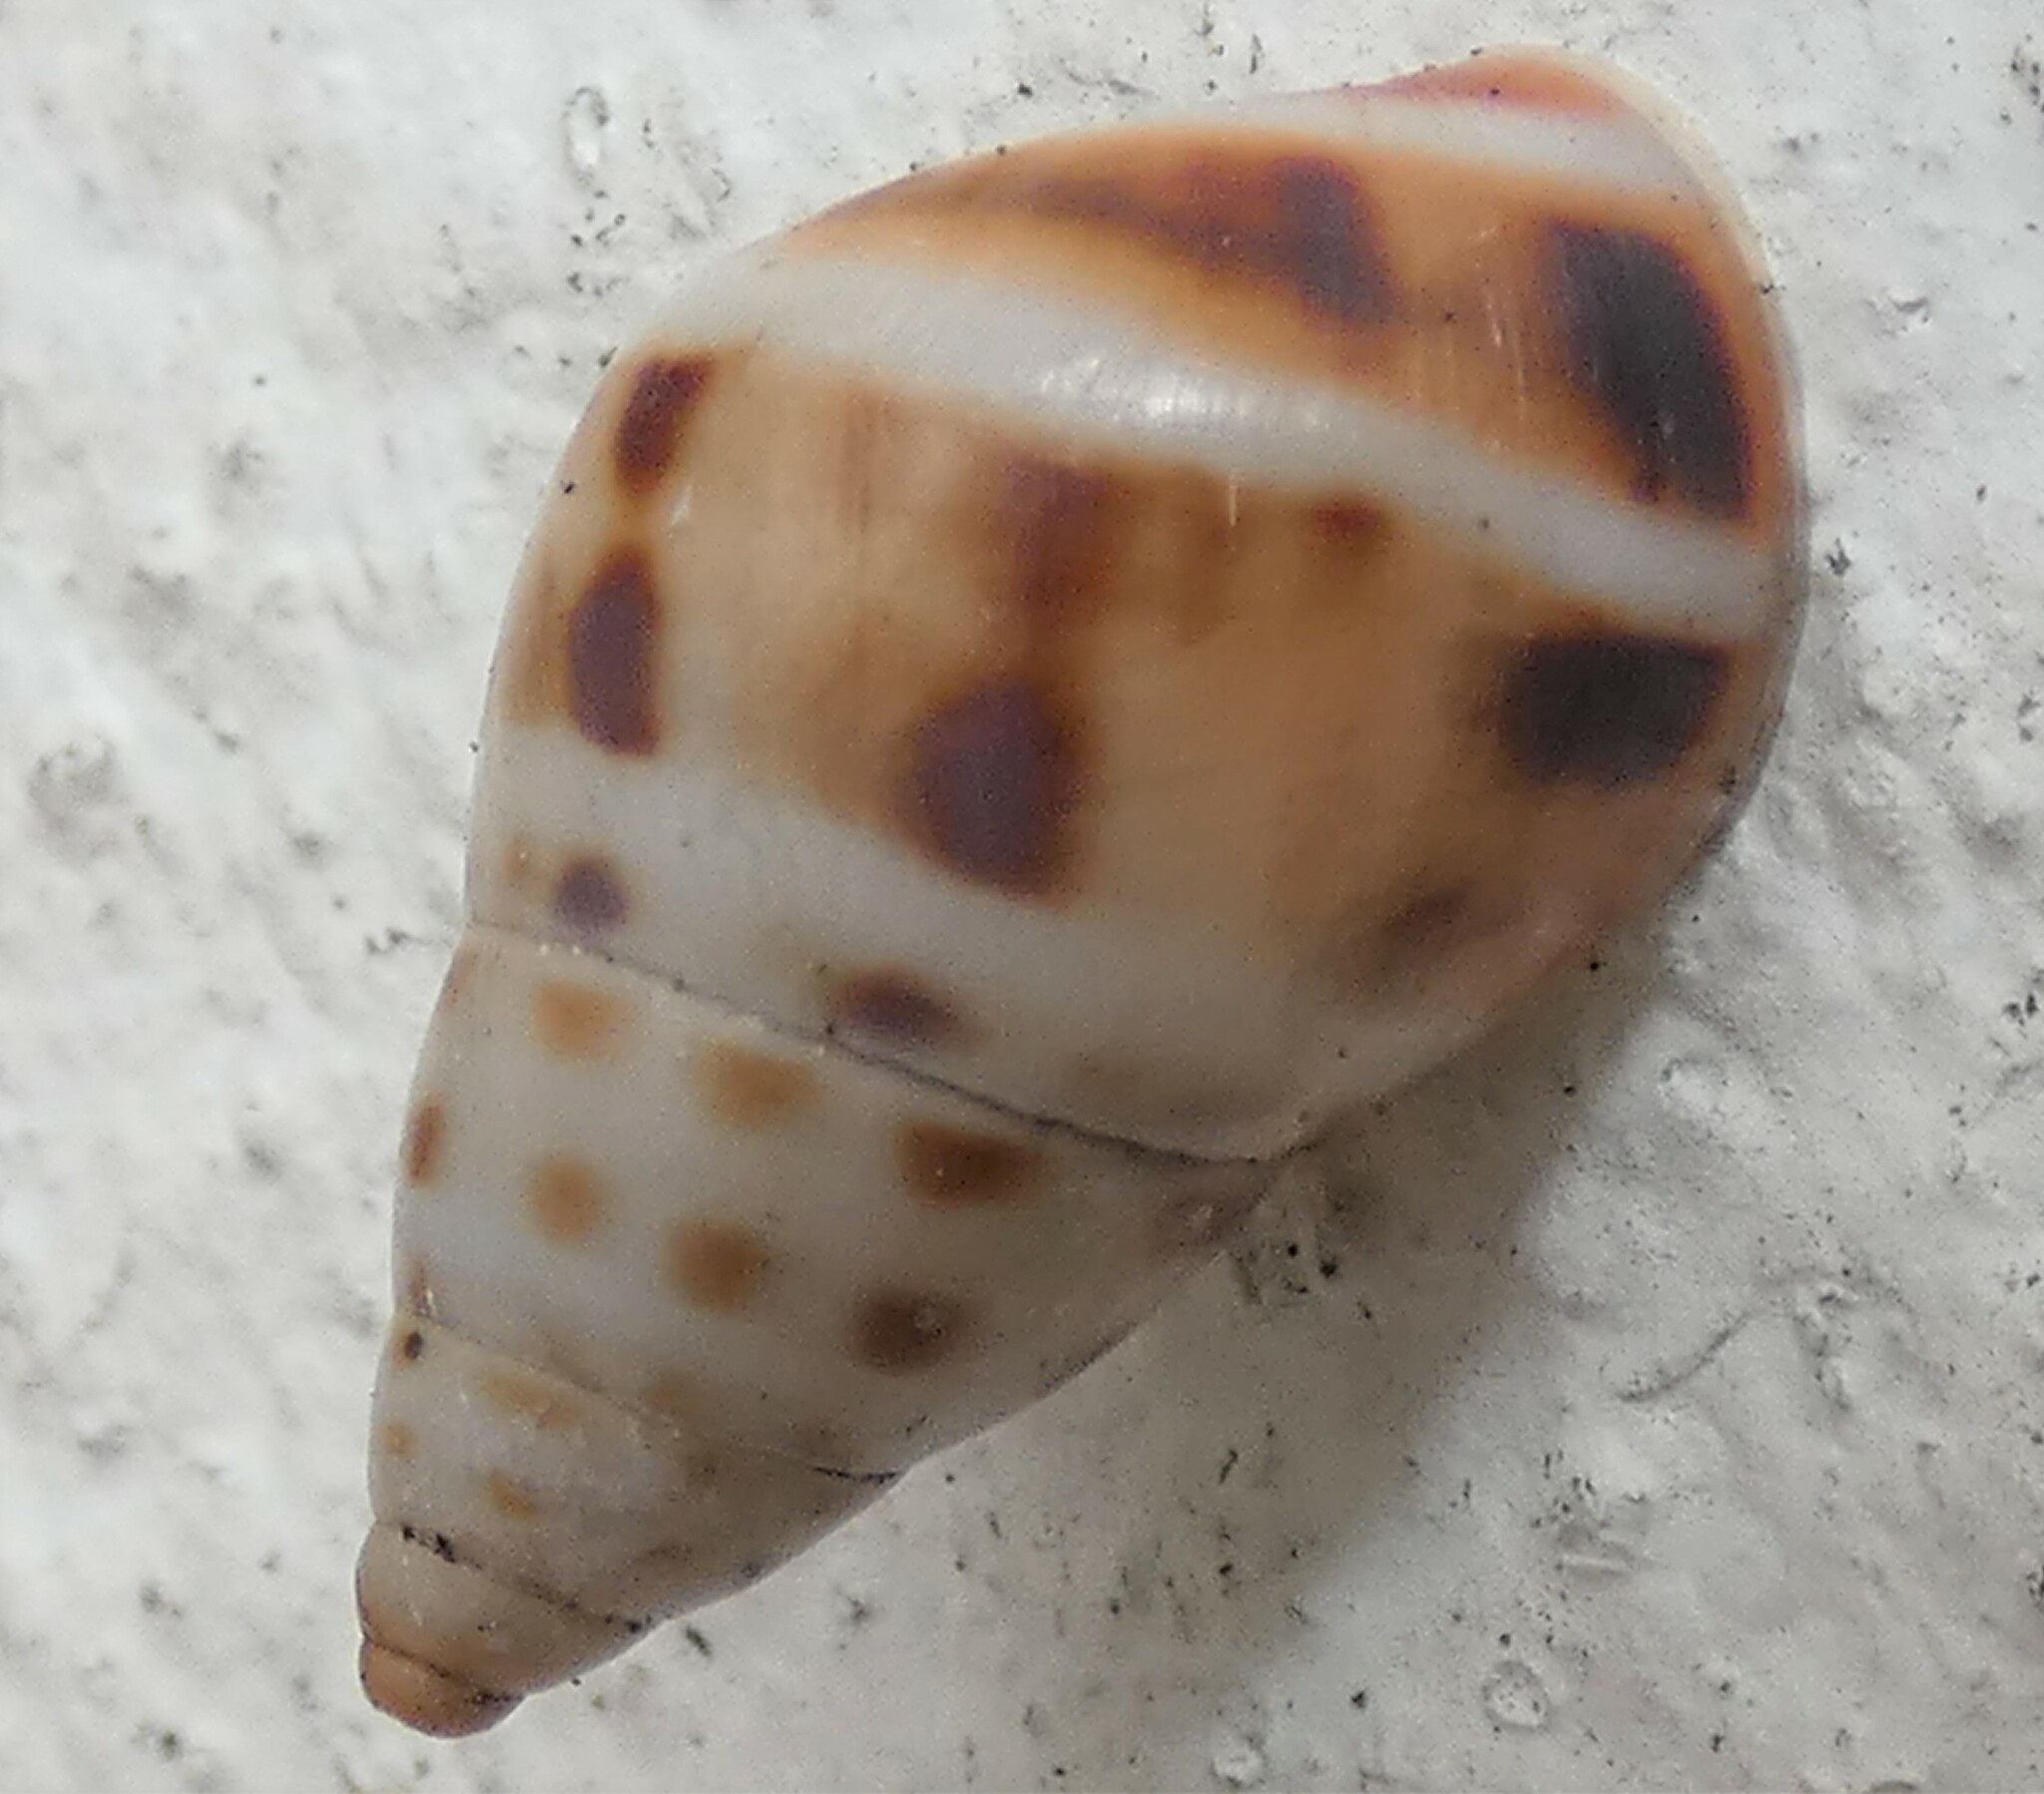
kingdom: Animalia
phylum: Mollusca
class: Gastropoda
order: Stylommatophora
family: Bulimulidae
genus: Drymaeus
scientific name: Drymaeus dormani
